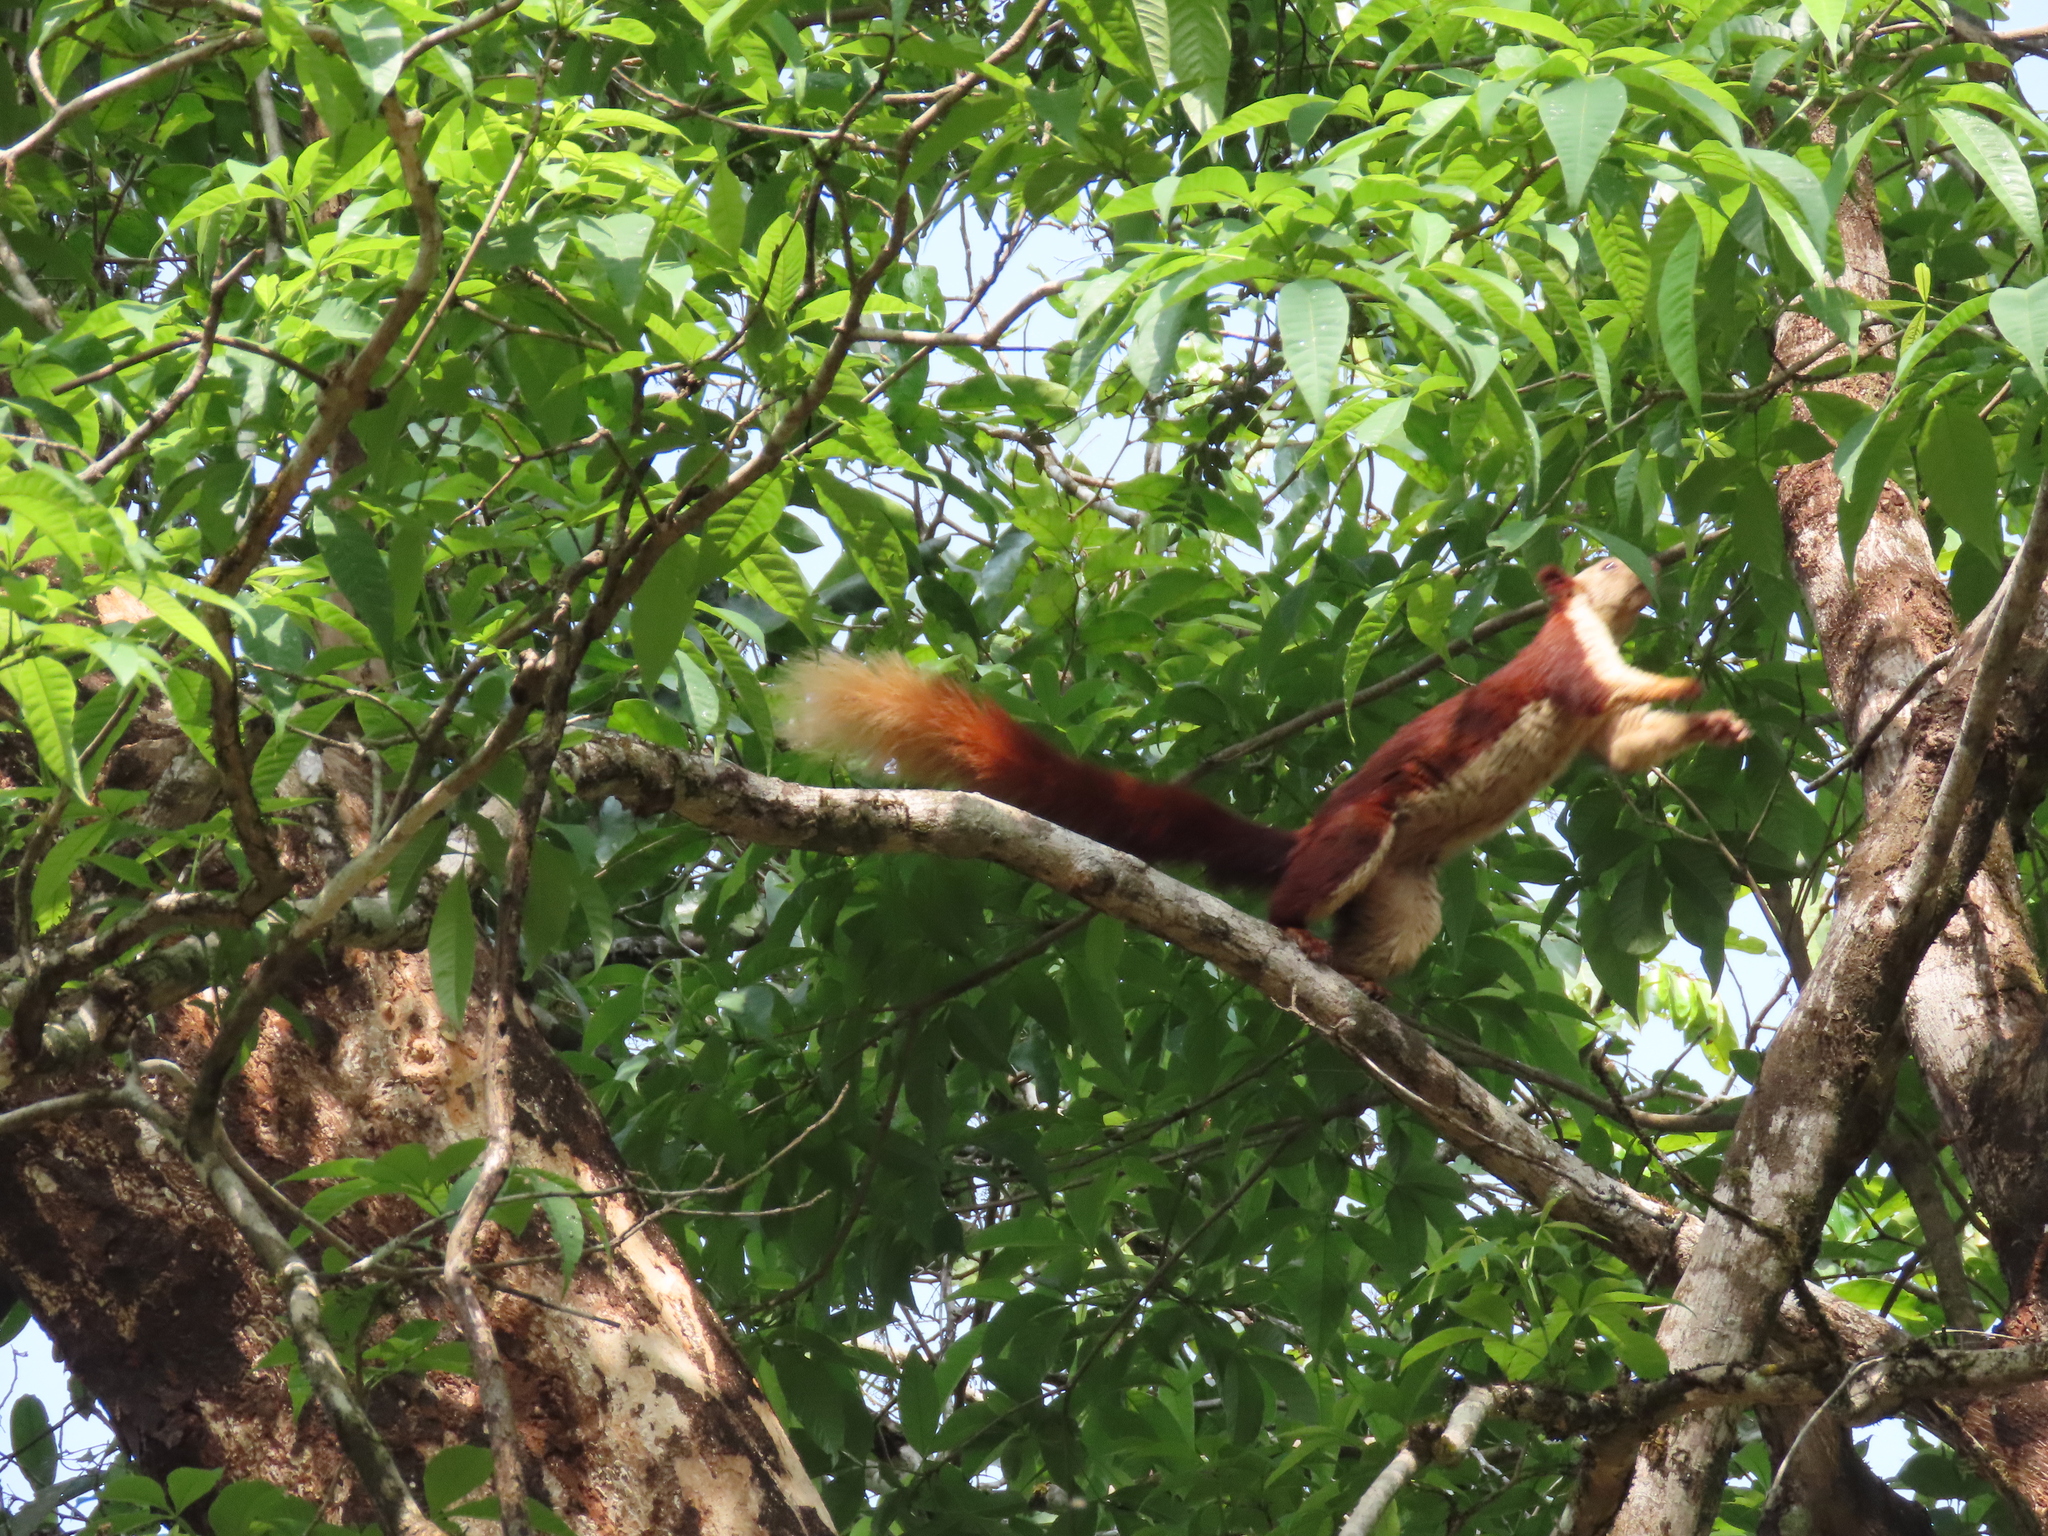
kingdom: Animalia
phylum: Chordata
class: Mammalia
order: Rodentia
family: Sciuridae
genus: Ratufa
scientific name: Ratufa indica
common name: Indian giant squirrel
